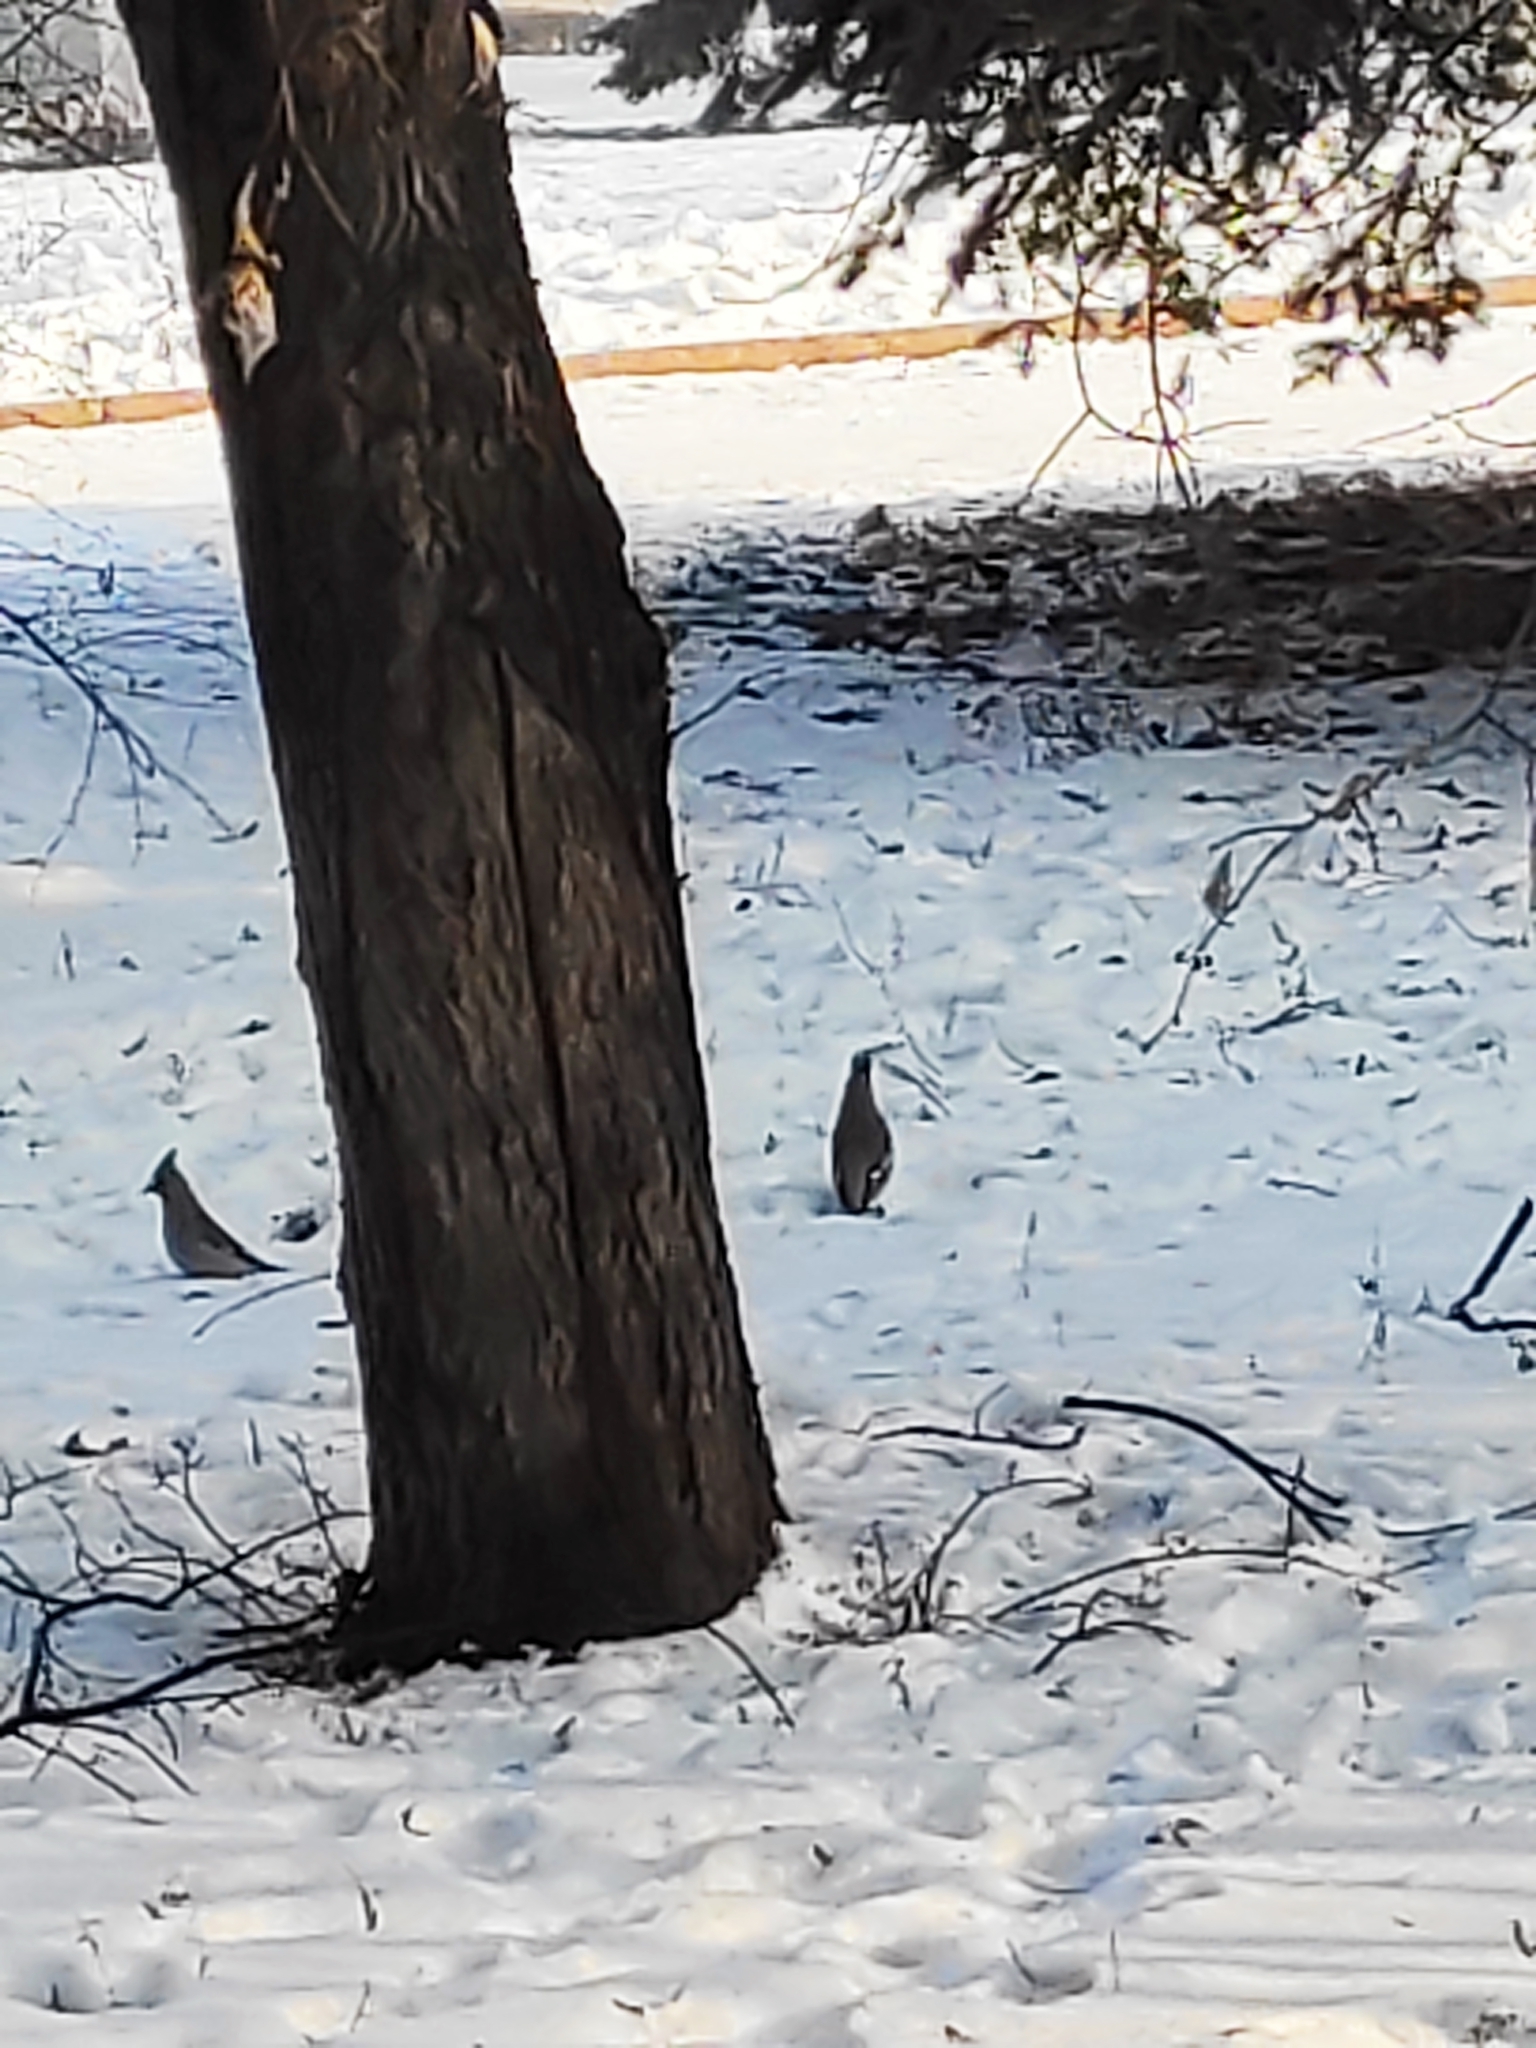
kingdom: Animalia
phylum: Chordata
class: Aves
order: Passeriformes
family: Bombycillidae
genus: Bombycilla
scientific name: Bombycilla garrulus
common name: Bohemian waxwing
